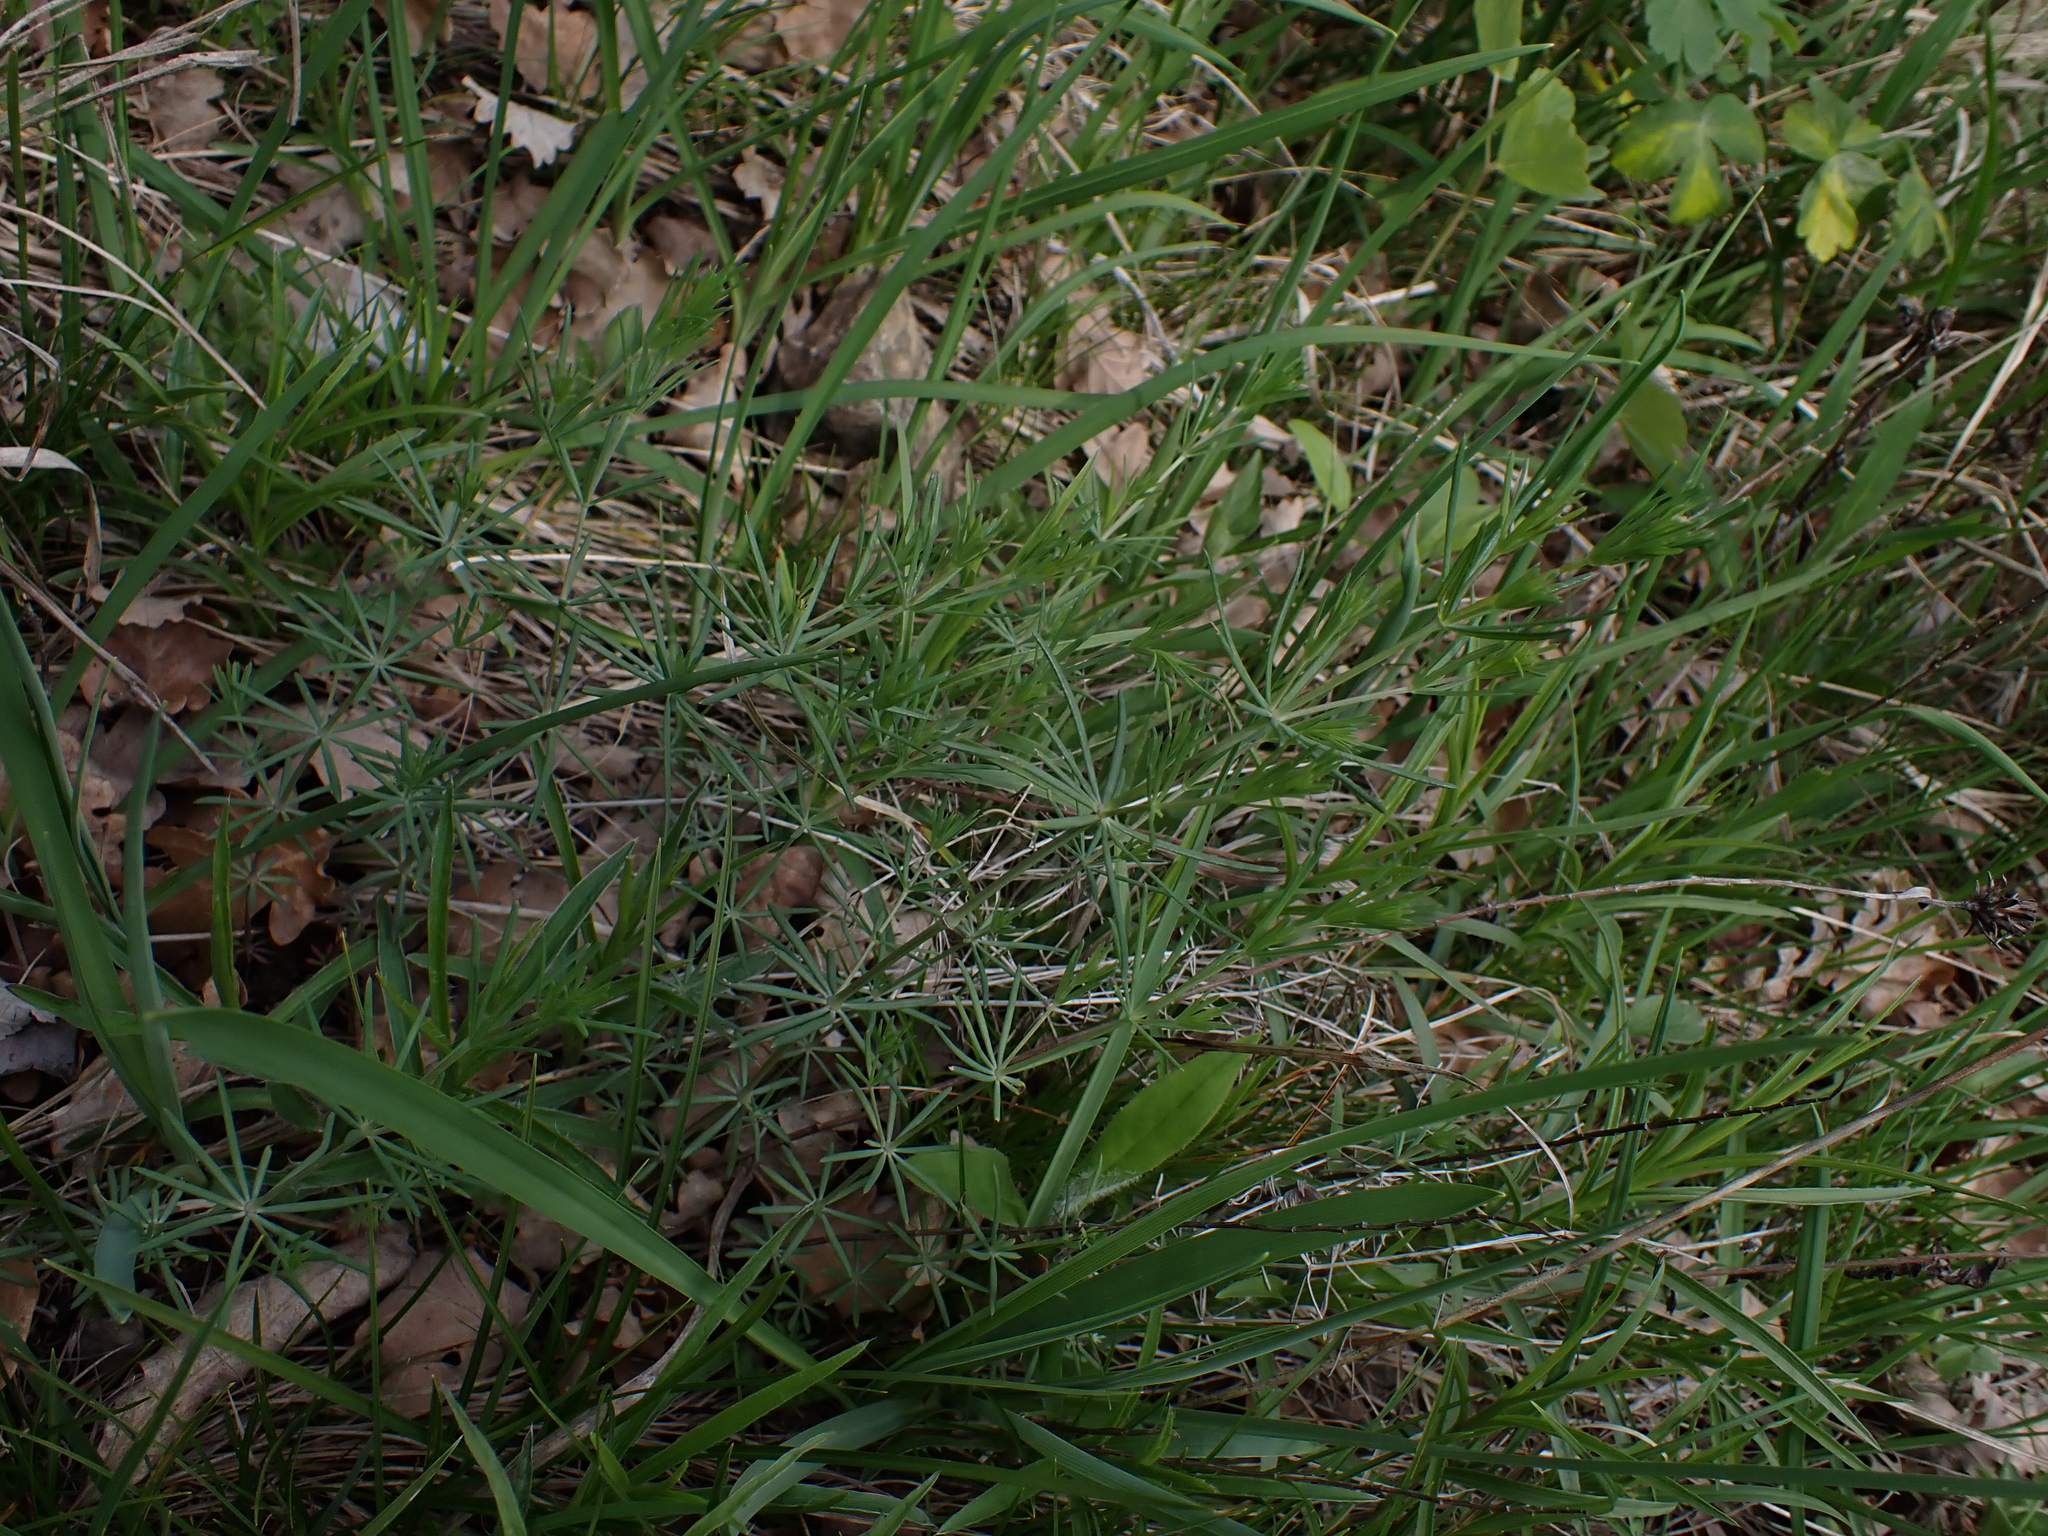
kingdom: Plantae
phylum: Tracheophyta
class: Magnoliopsida
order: Gentianales
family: Rubiaceae
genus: Galium
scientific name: Galium glaucum
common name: Waxy bedstraw
